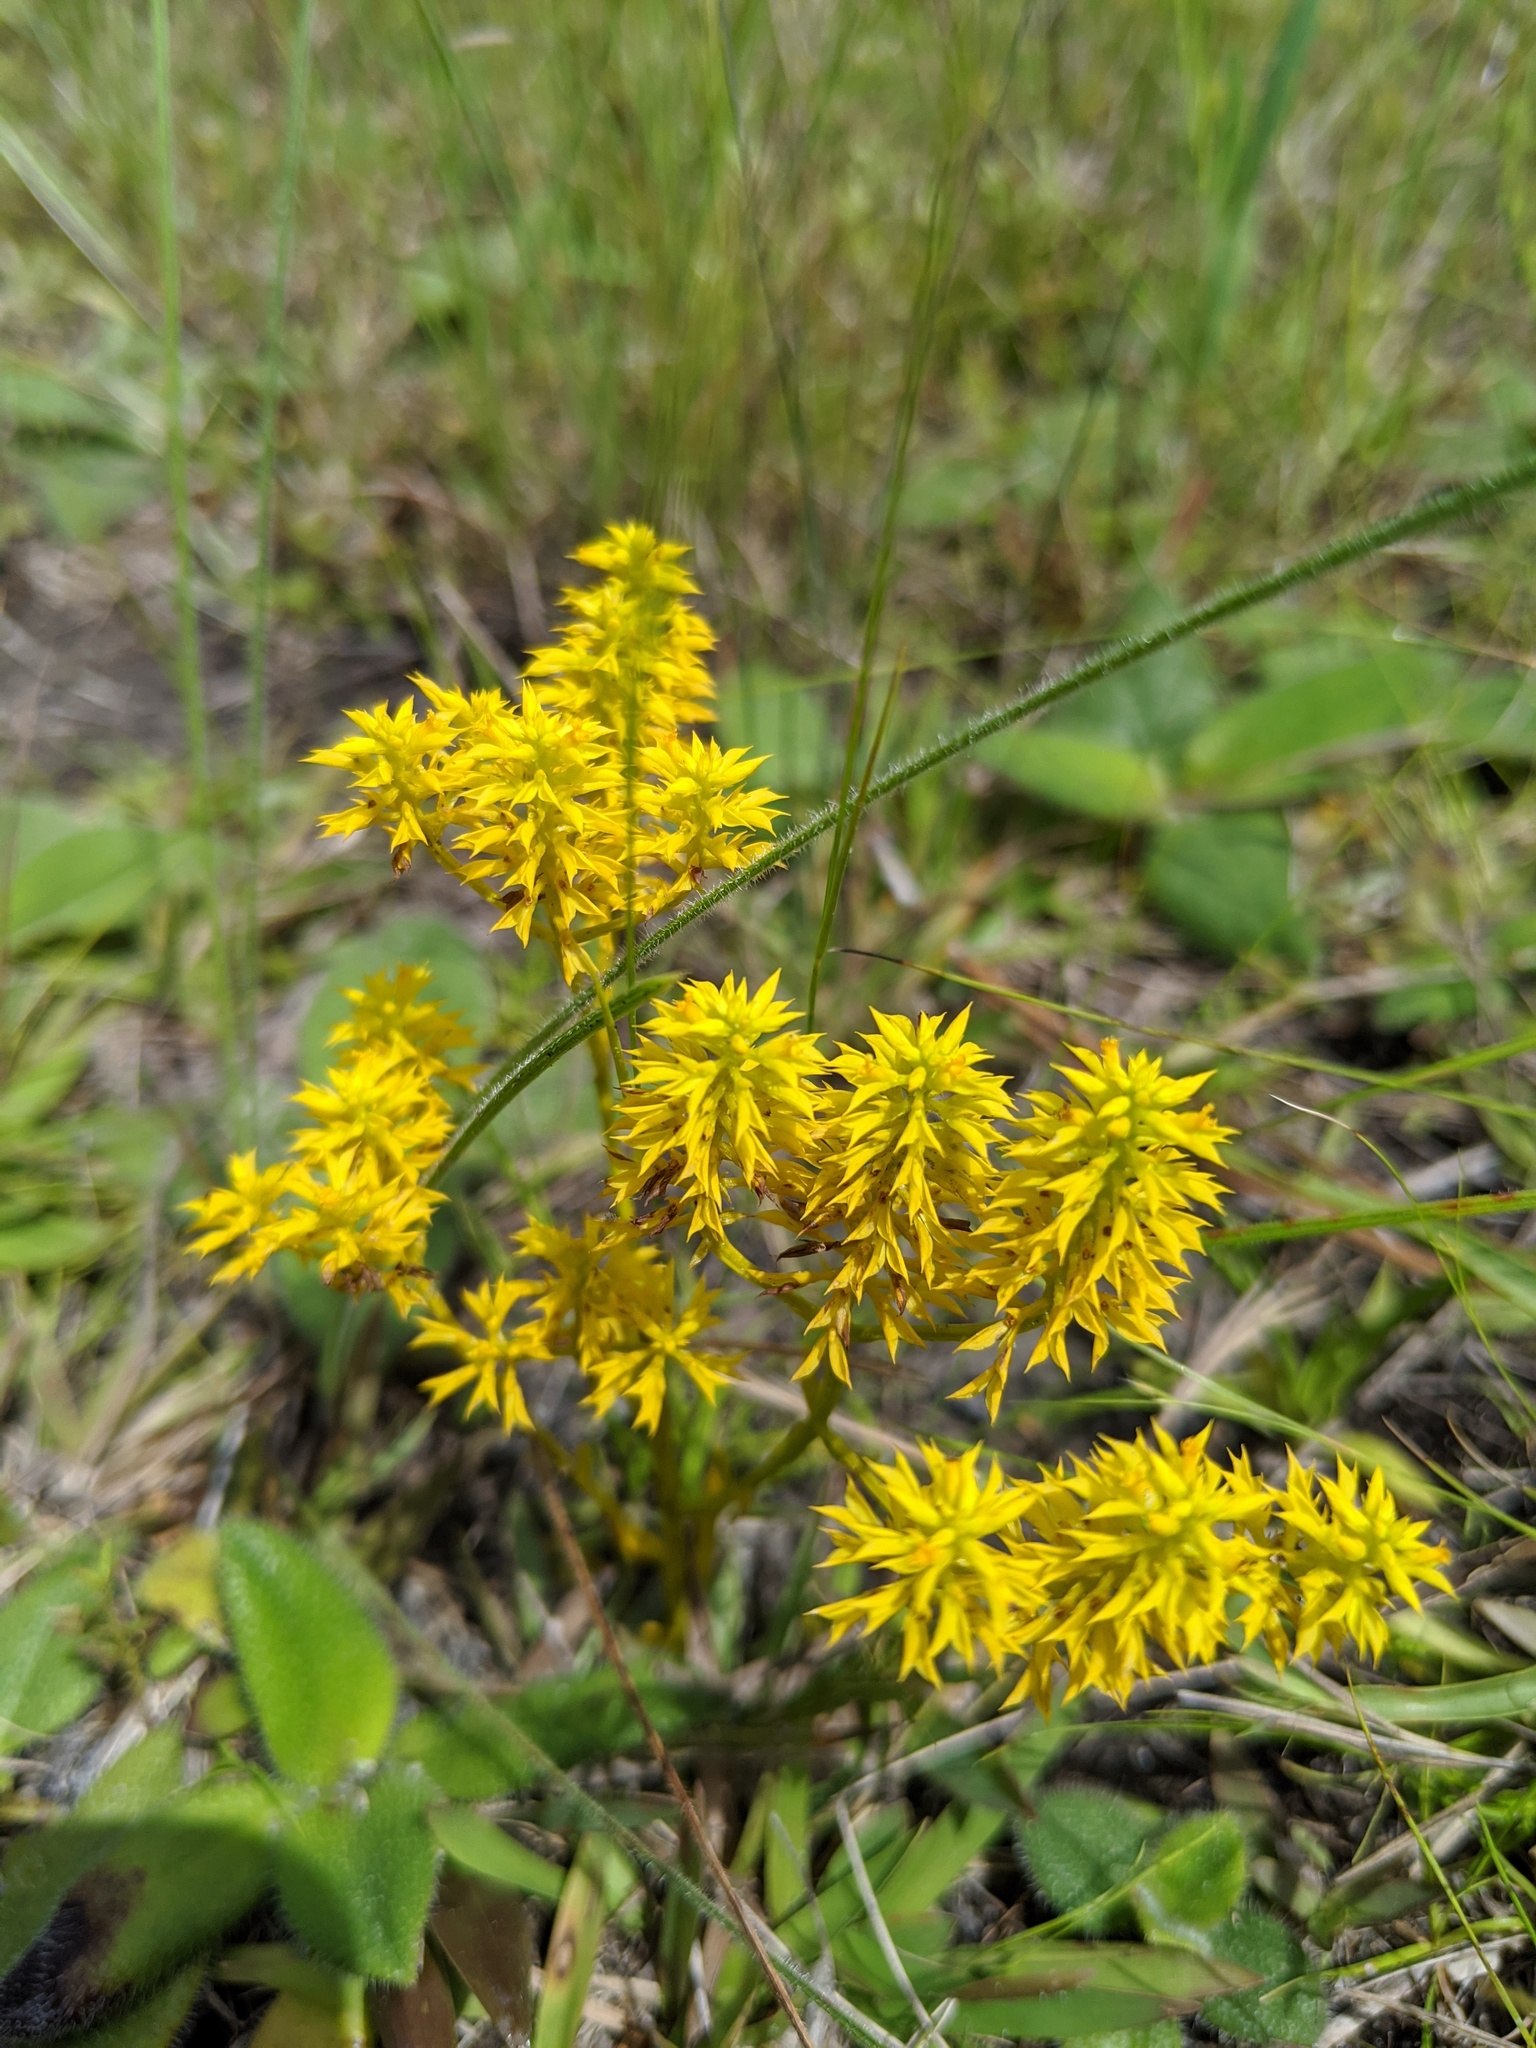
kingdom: Plantae
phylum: Tracheophyta
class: Magnoliopsida
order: Fabales
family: Polygalaceae
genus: Polygala
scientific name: Polygala ramosa
